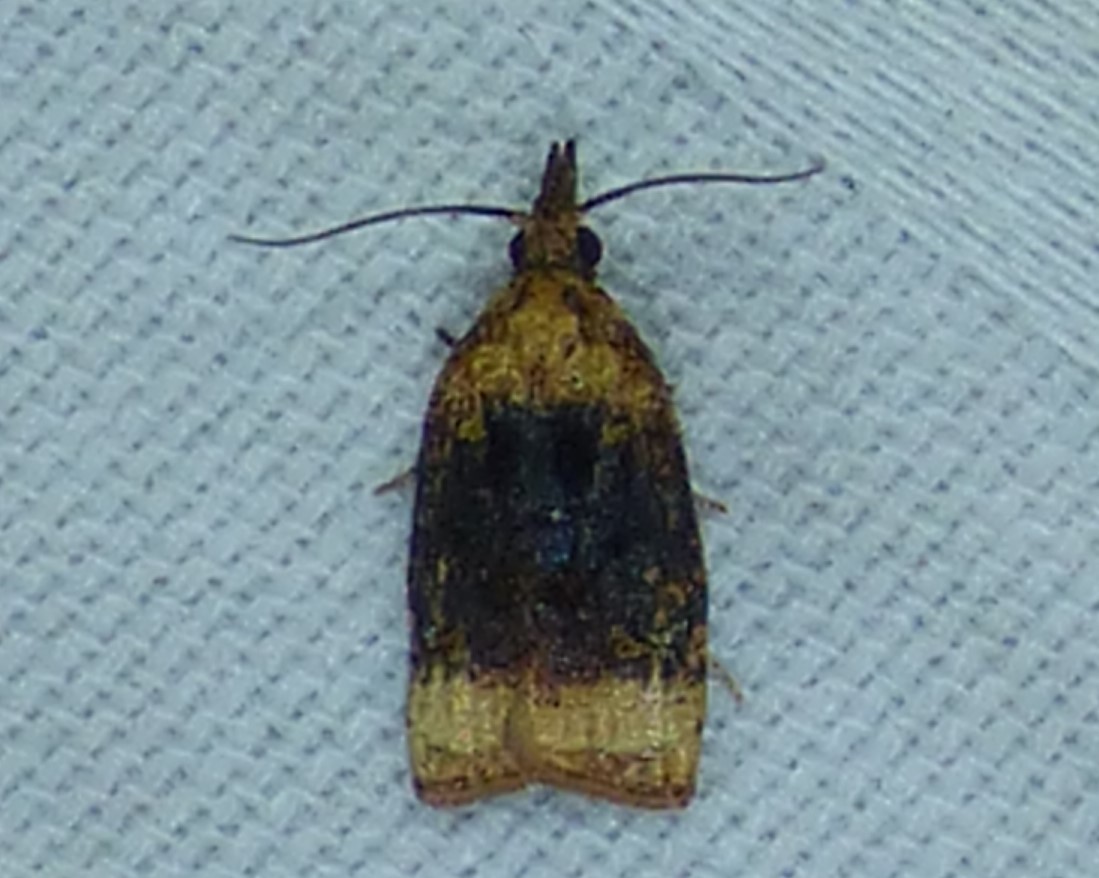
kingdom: Animalia
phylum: Arthropoda
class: Insecta
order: Lepidoptera
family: Tortricidae
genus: Platynota
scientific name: Platynota flavedana
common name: Black-shaded platynota moth
